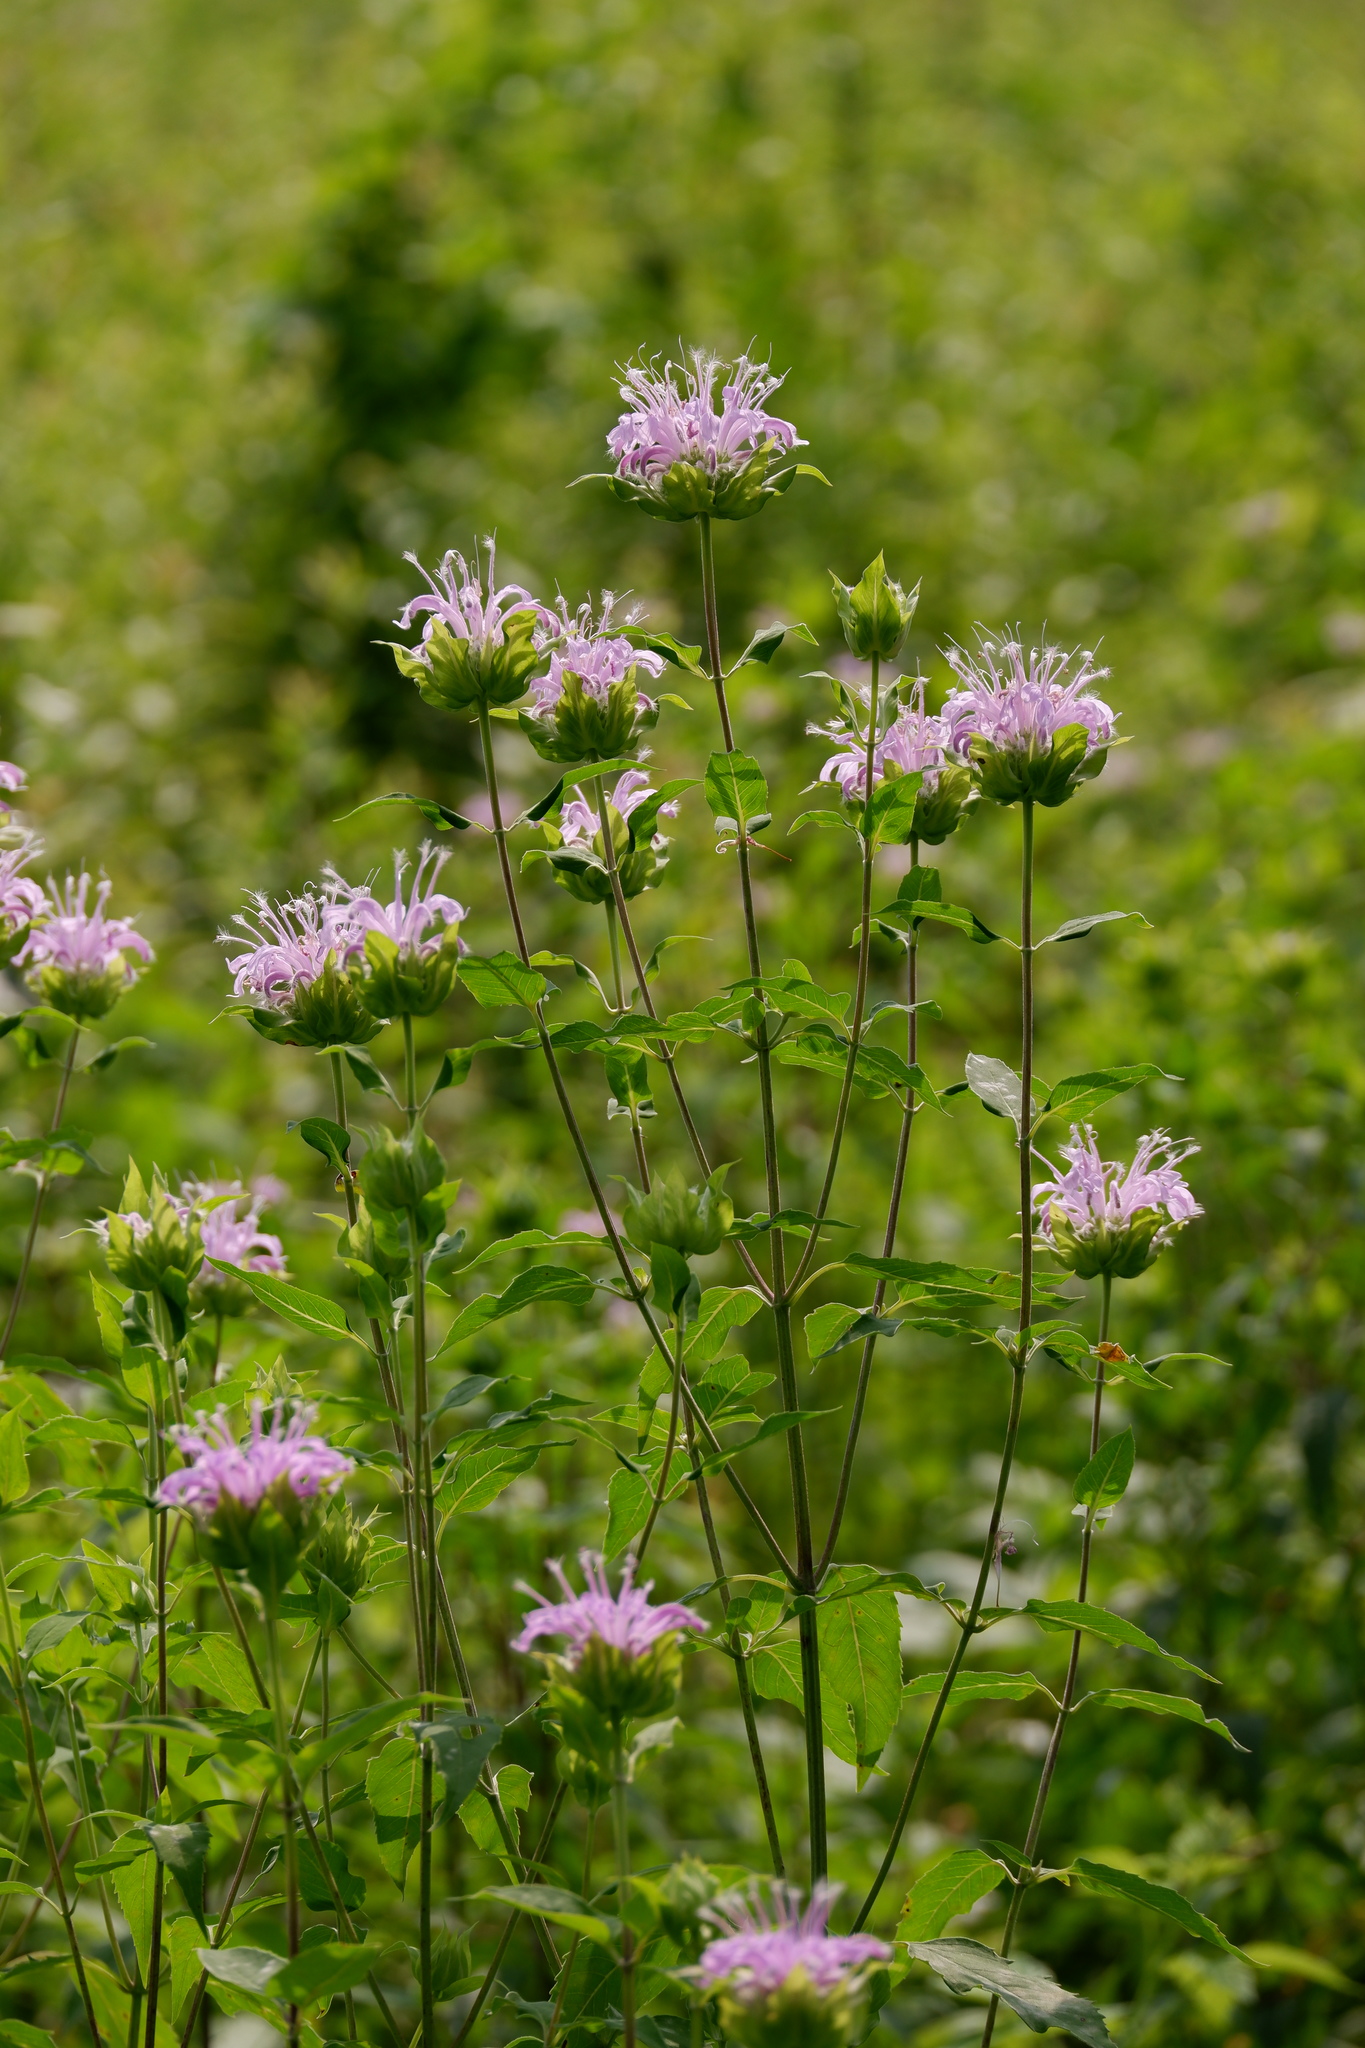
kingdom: Plantae
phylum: Tracheophyta
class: Magnoliopsida
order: Lamiales
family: Lamiaceae
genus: Monarda
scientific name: Monarda fistulosa
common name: Purple beebalm
